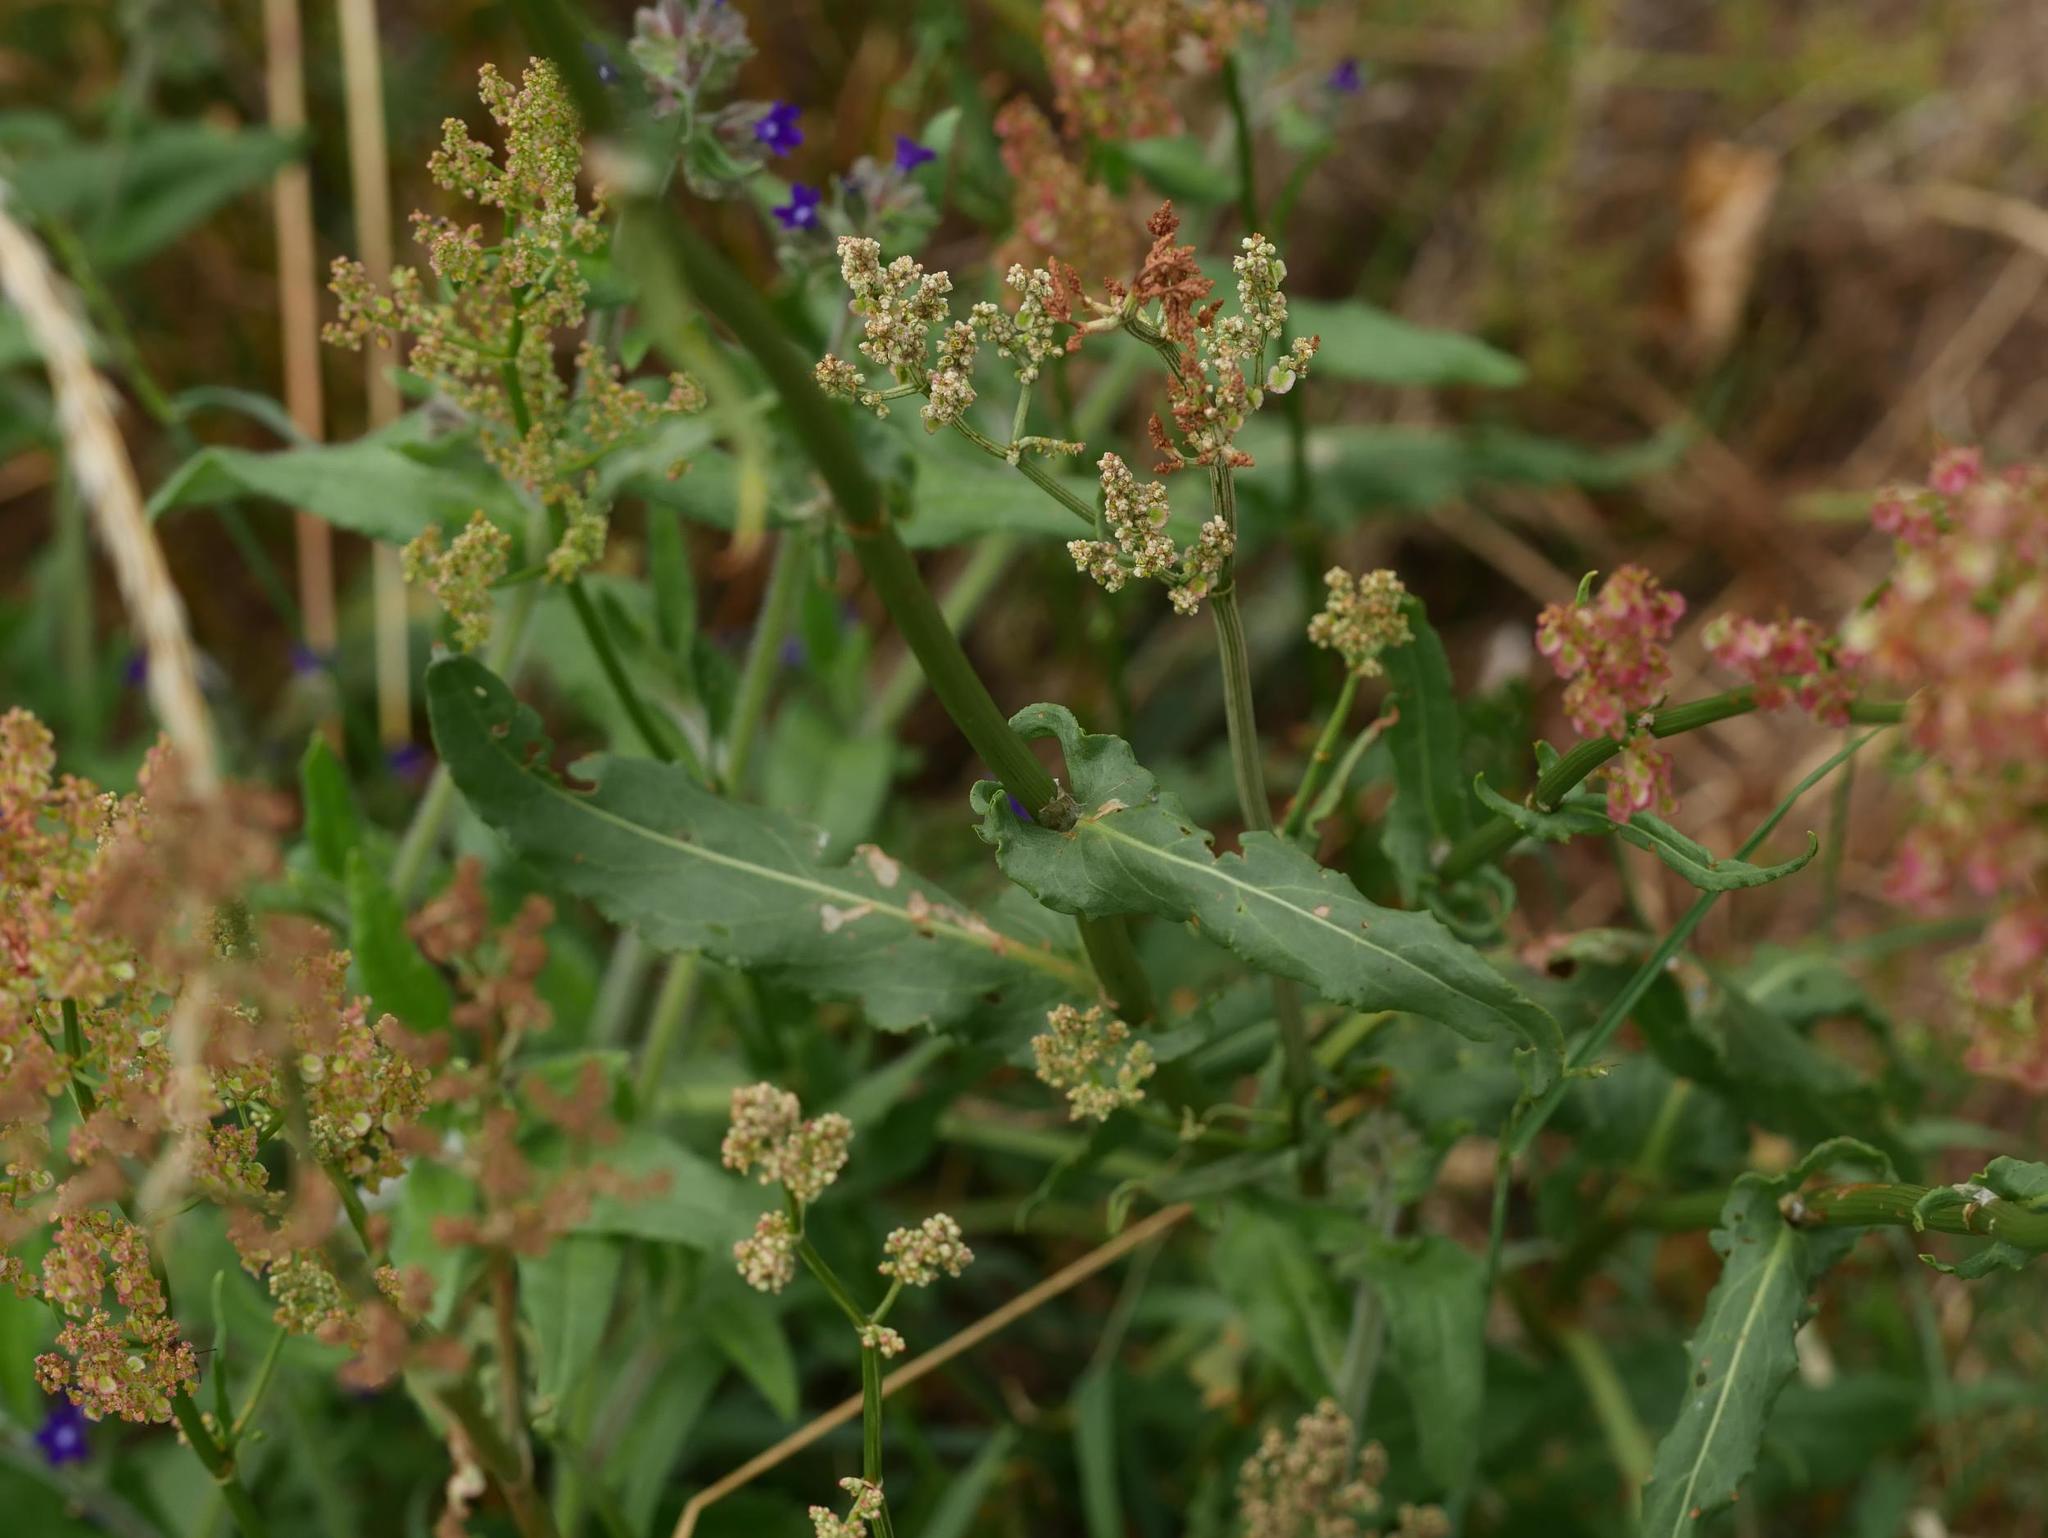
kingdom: Plantae
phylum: Tracheophyta
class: Magnoliopsida
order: Caryophyllales
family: Polygonaceae
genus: Rumex
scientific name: Rumex acetosa
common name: Garden sorrel
